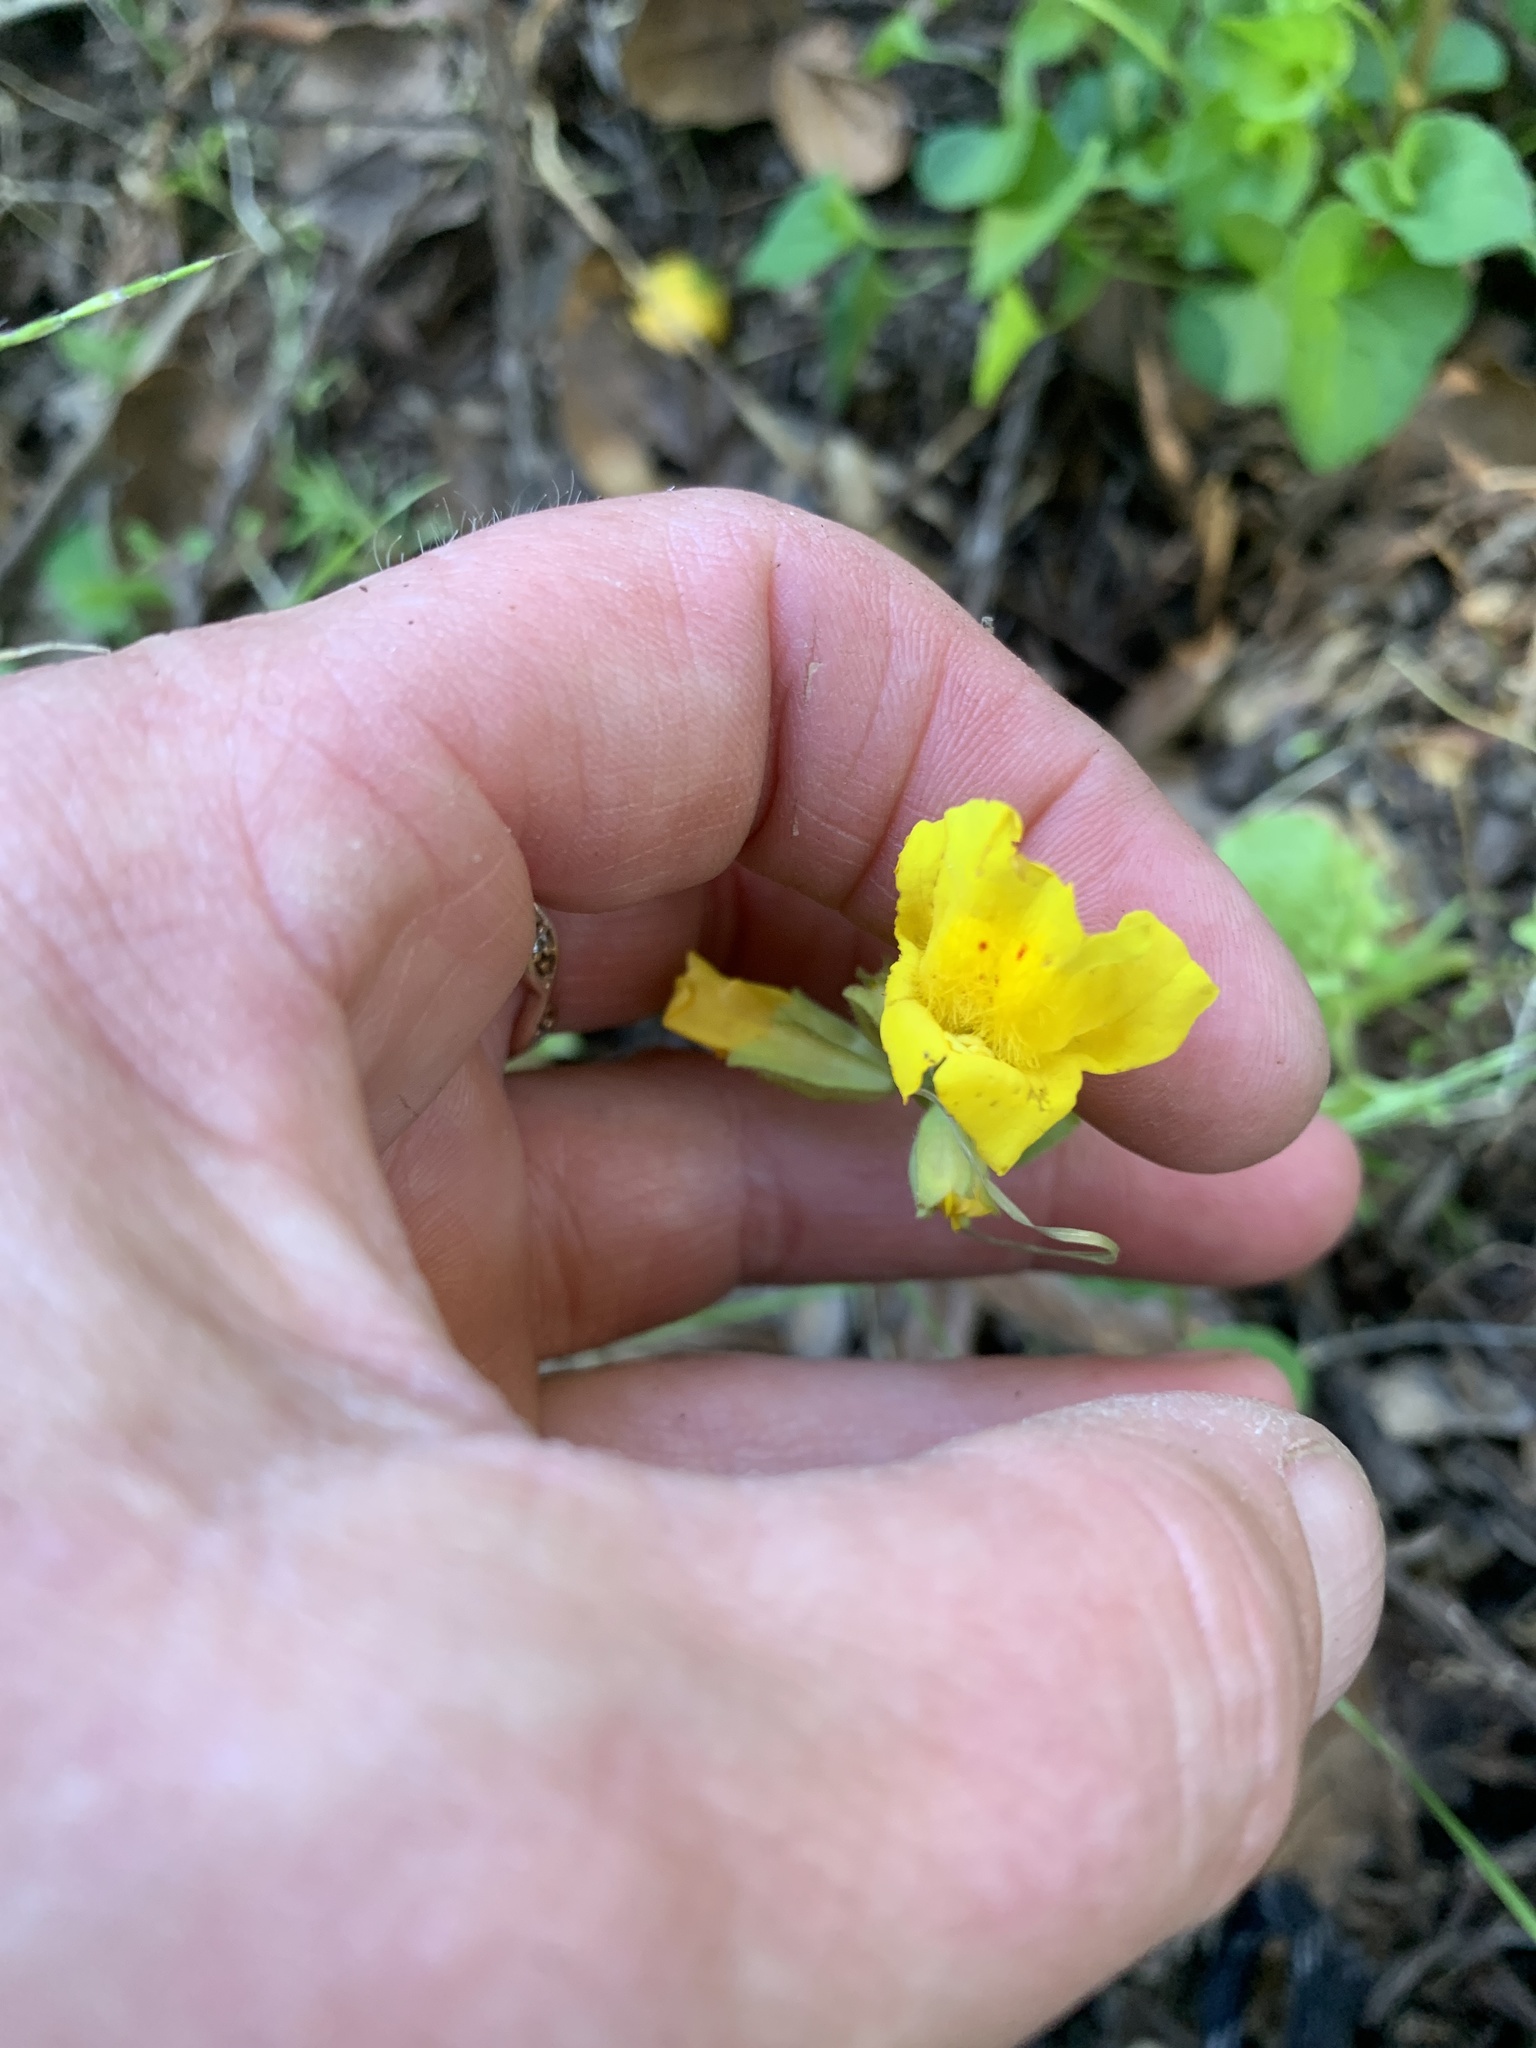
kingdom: Plantae
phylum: Tracheophyta
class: Magnoliopsida
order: Lamiales
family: Phrymaceae
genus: Erythranthe
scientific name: Erythranthe guttata
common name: Monkeyflower
